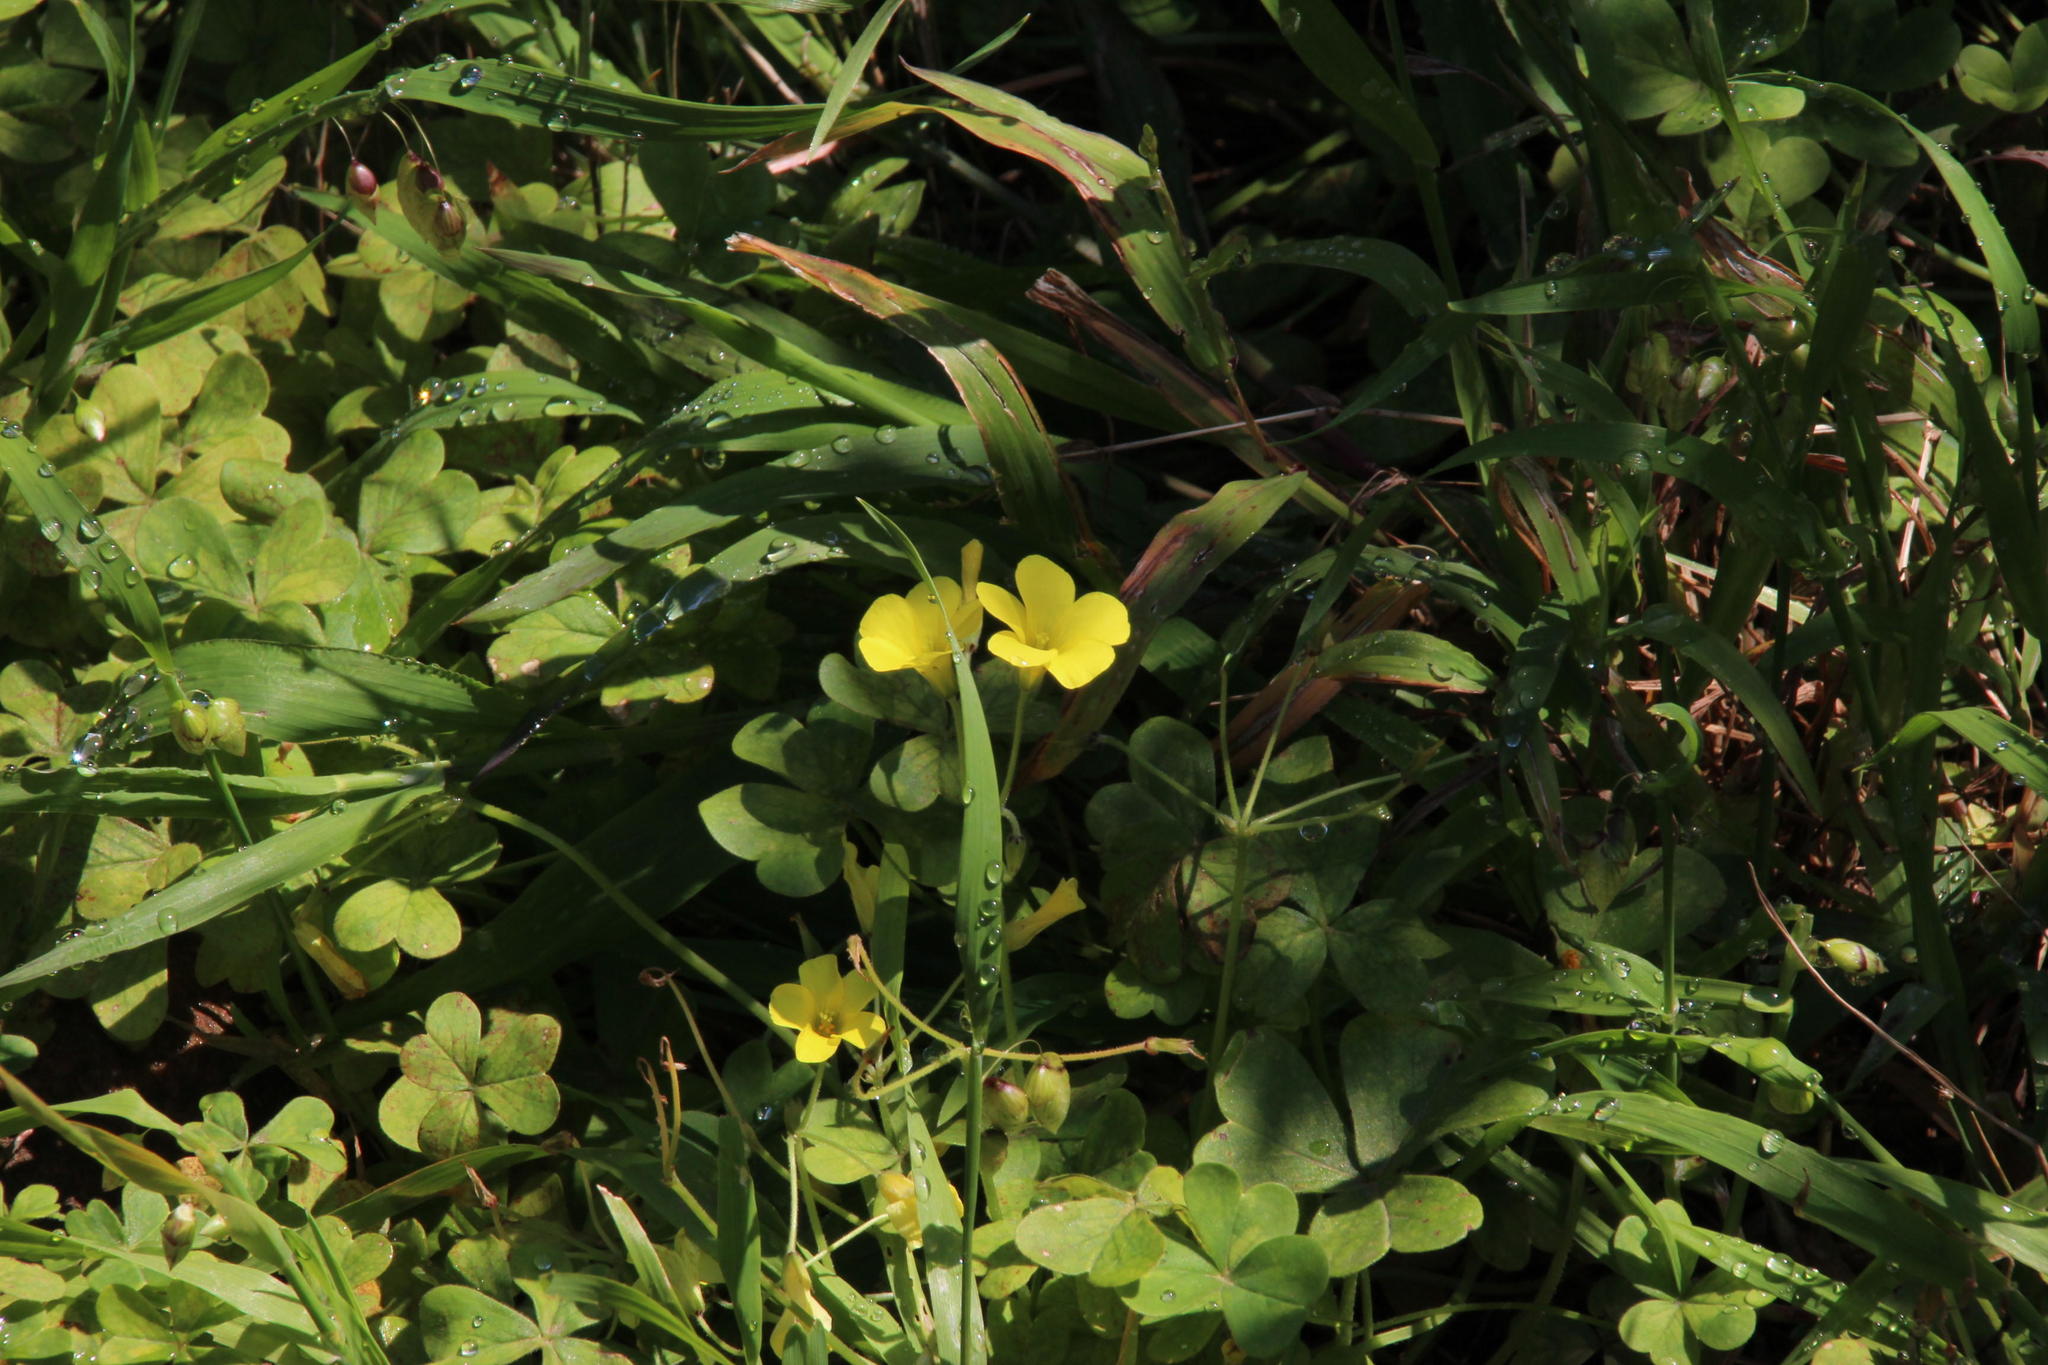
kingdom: Plantae
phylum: Tracheophyta
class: Magnoliopsida
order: Oxalidales
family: Oxalidaceae
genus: Oxalis
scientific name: Oxalis pes-caprae
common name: Bermuda-buttercup
